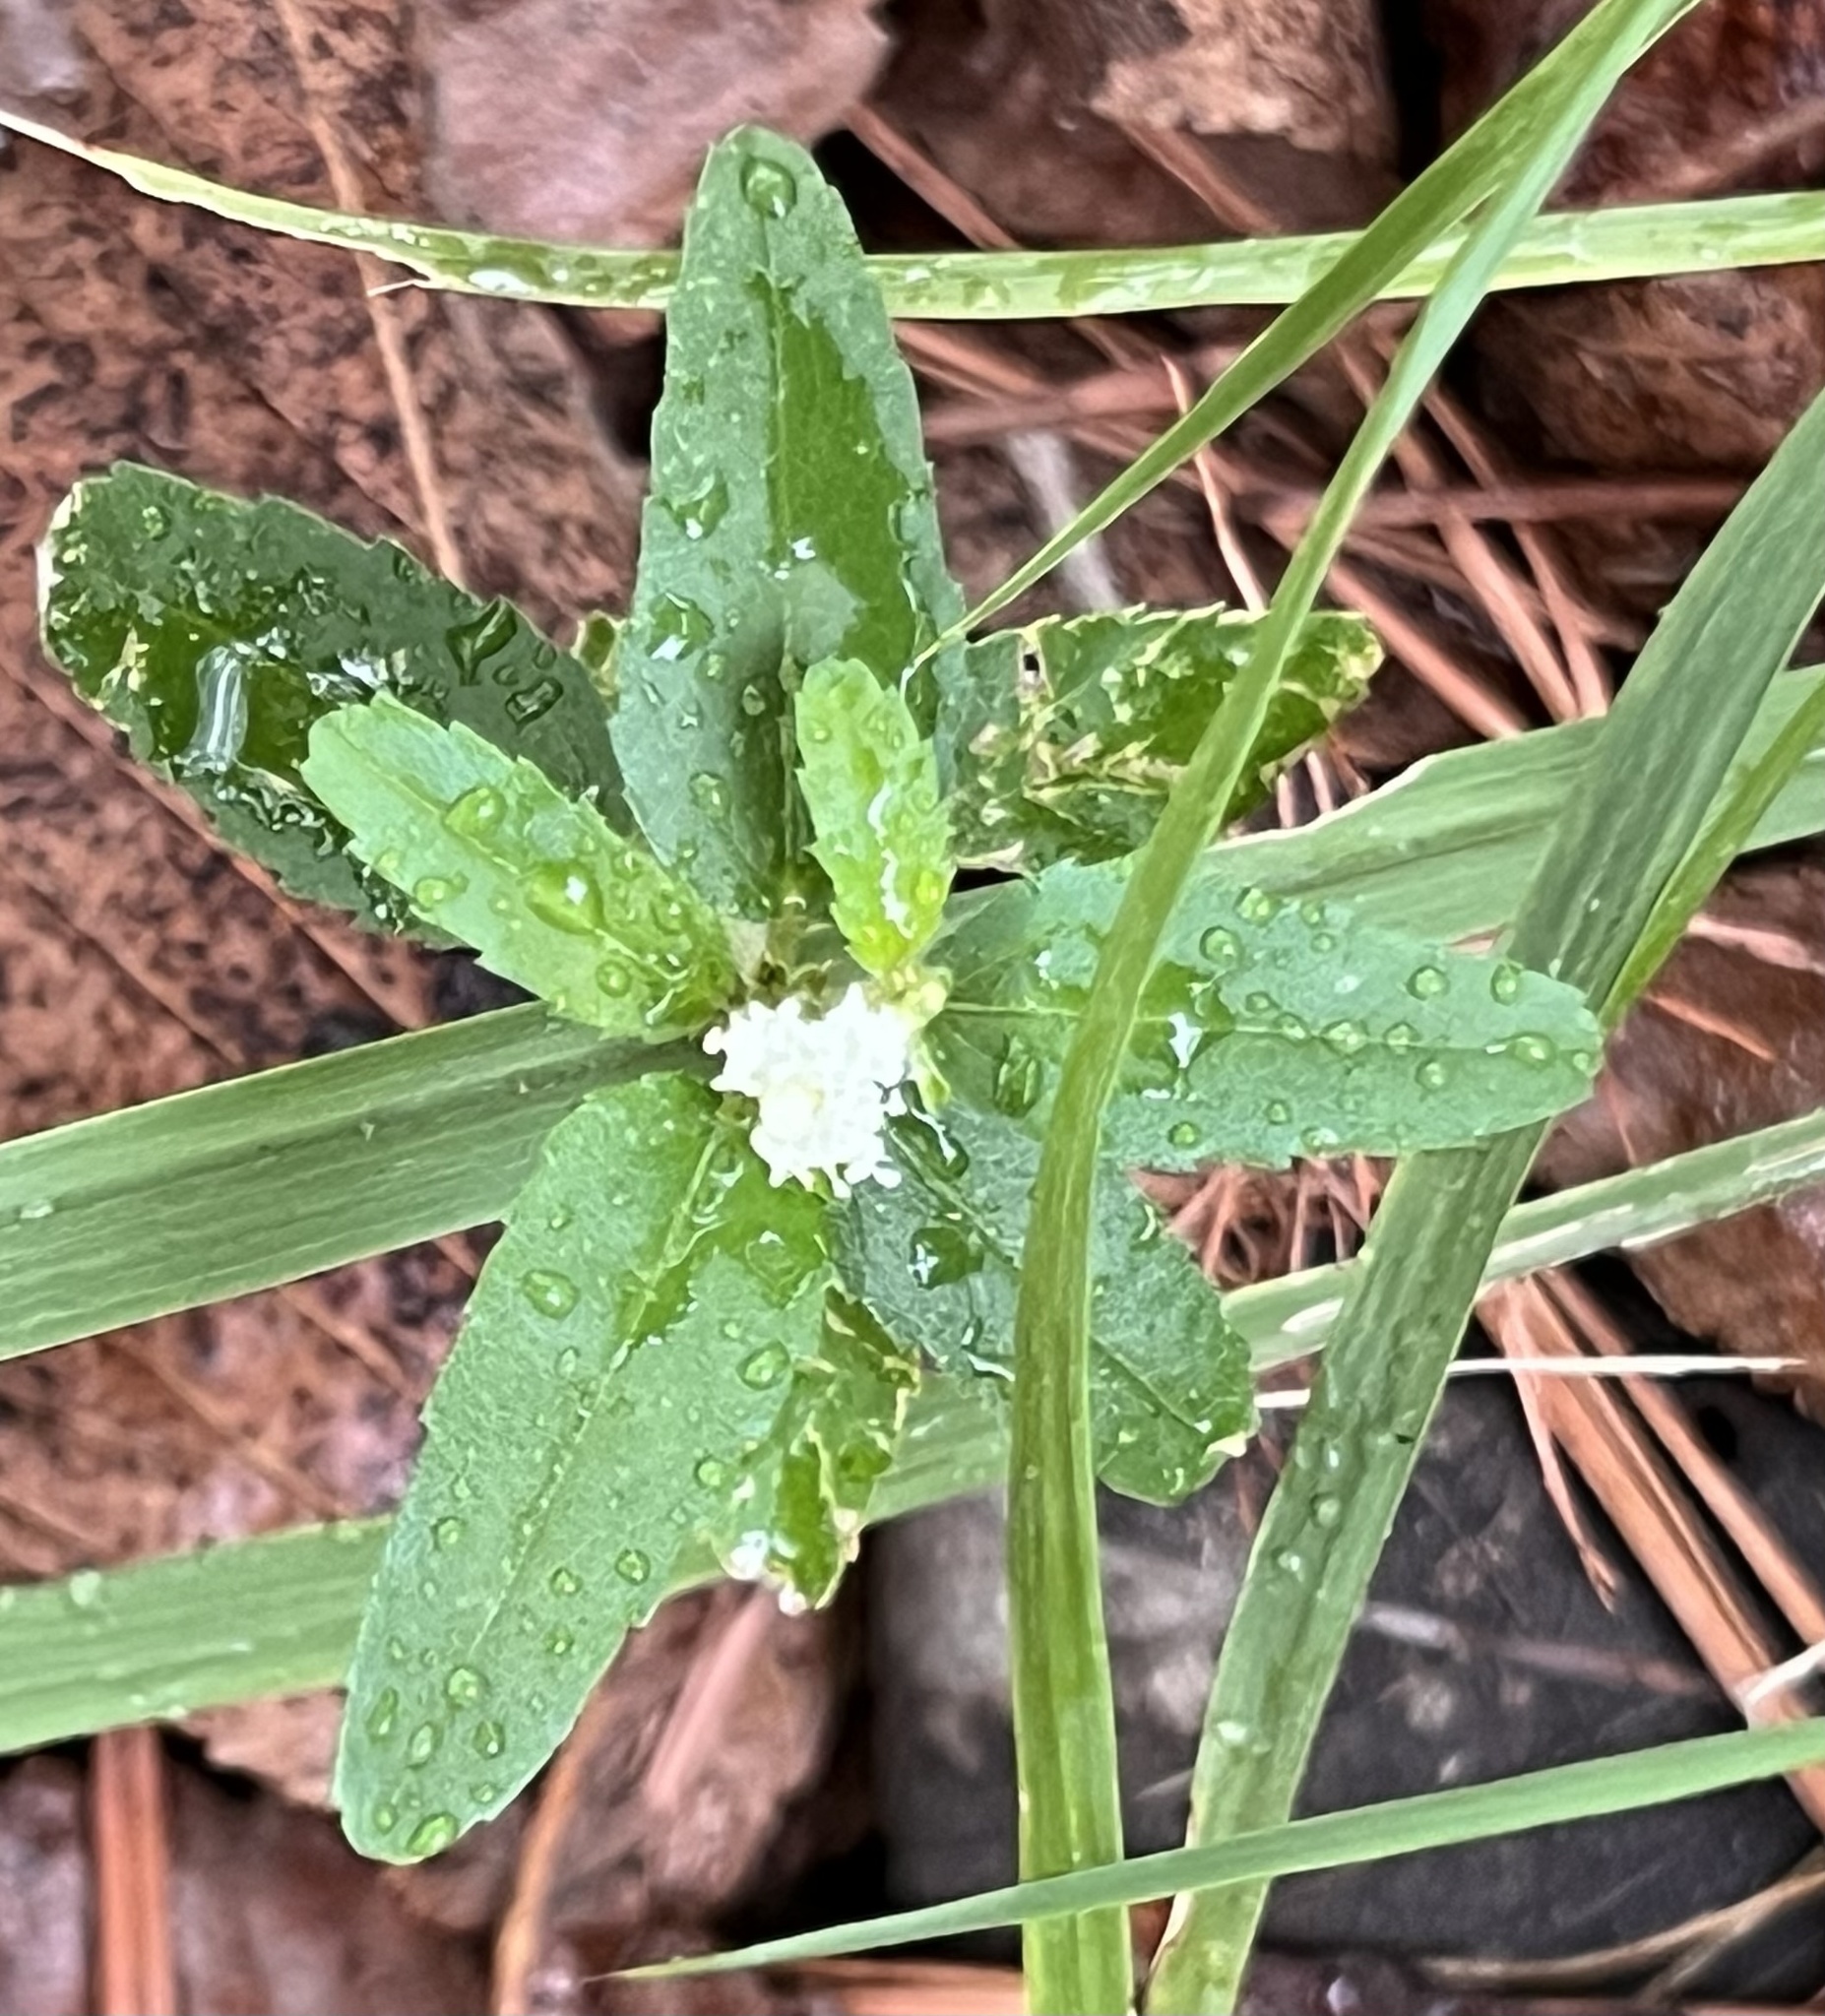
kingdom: Plantae
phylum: Tracheophyta
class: Magnoliopsida
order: Malpighiales
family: Euphorbiaceae
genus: Croton
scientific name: Croton glandulosus
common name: Tropic croton
